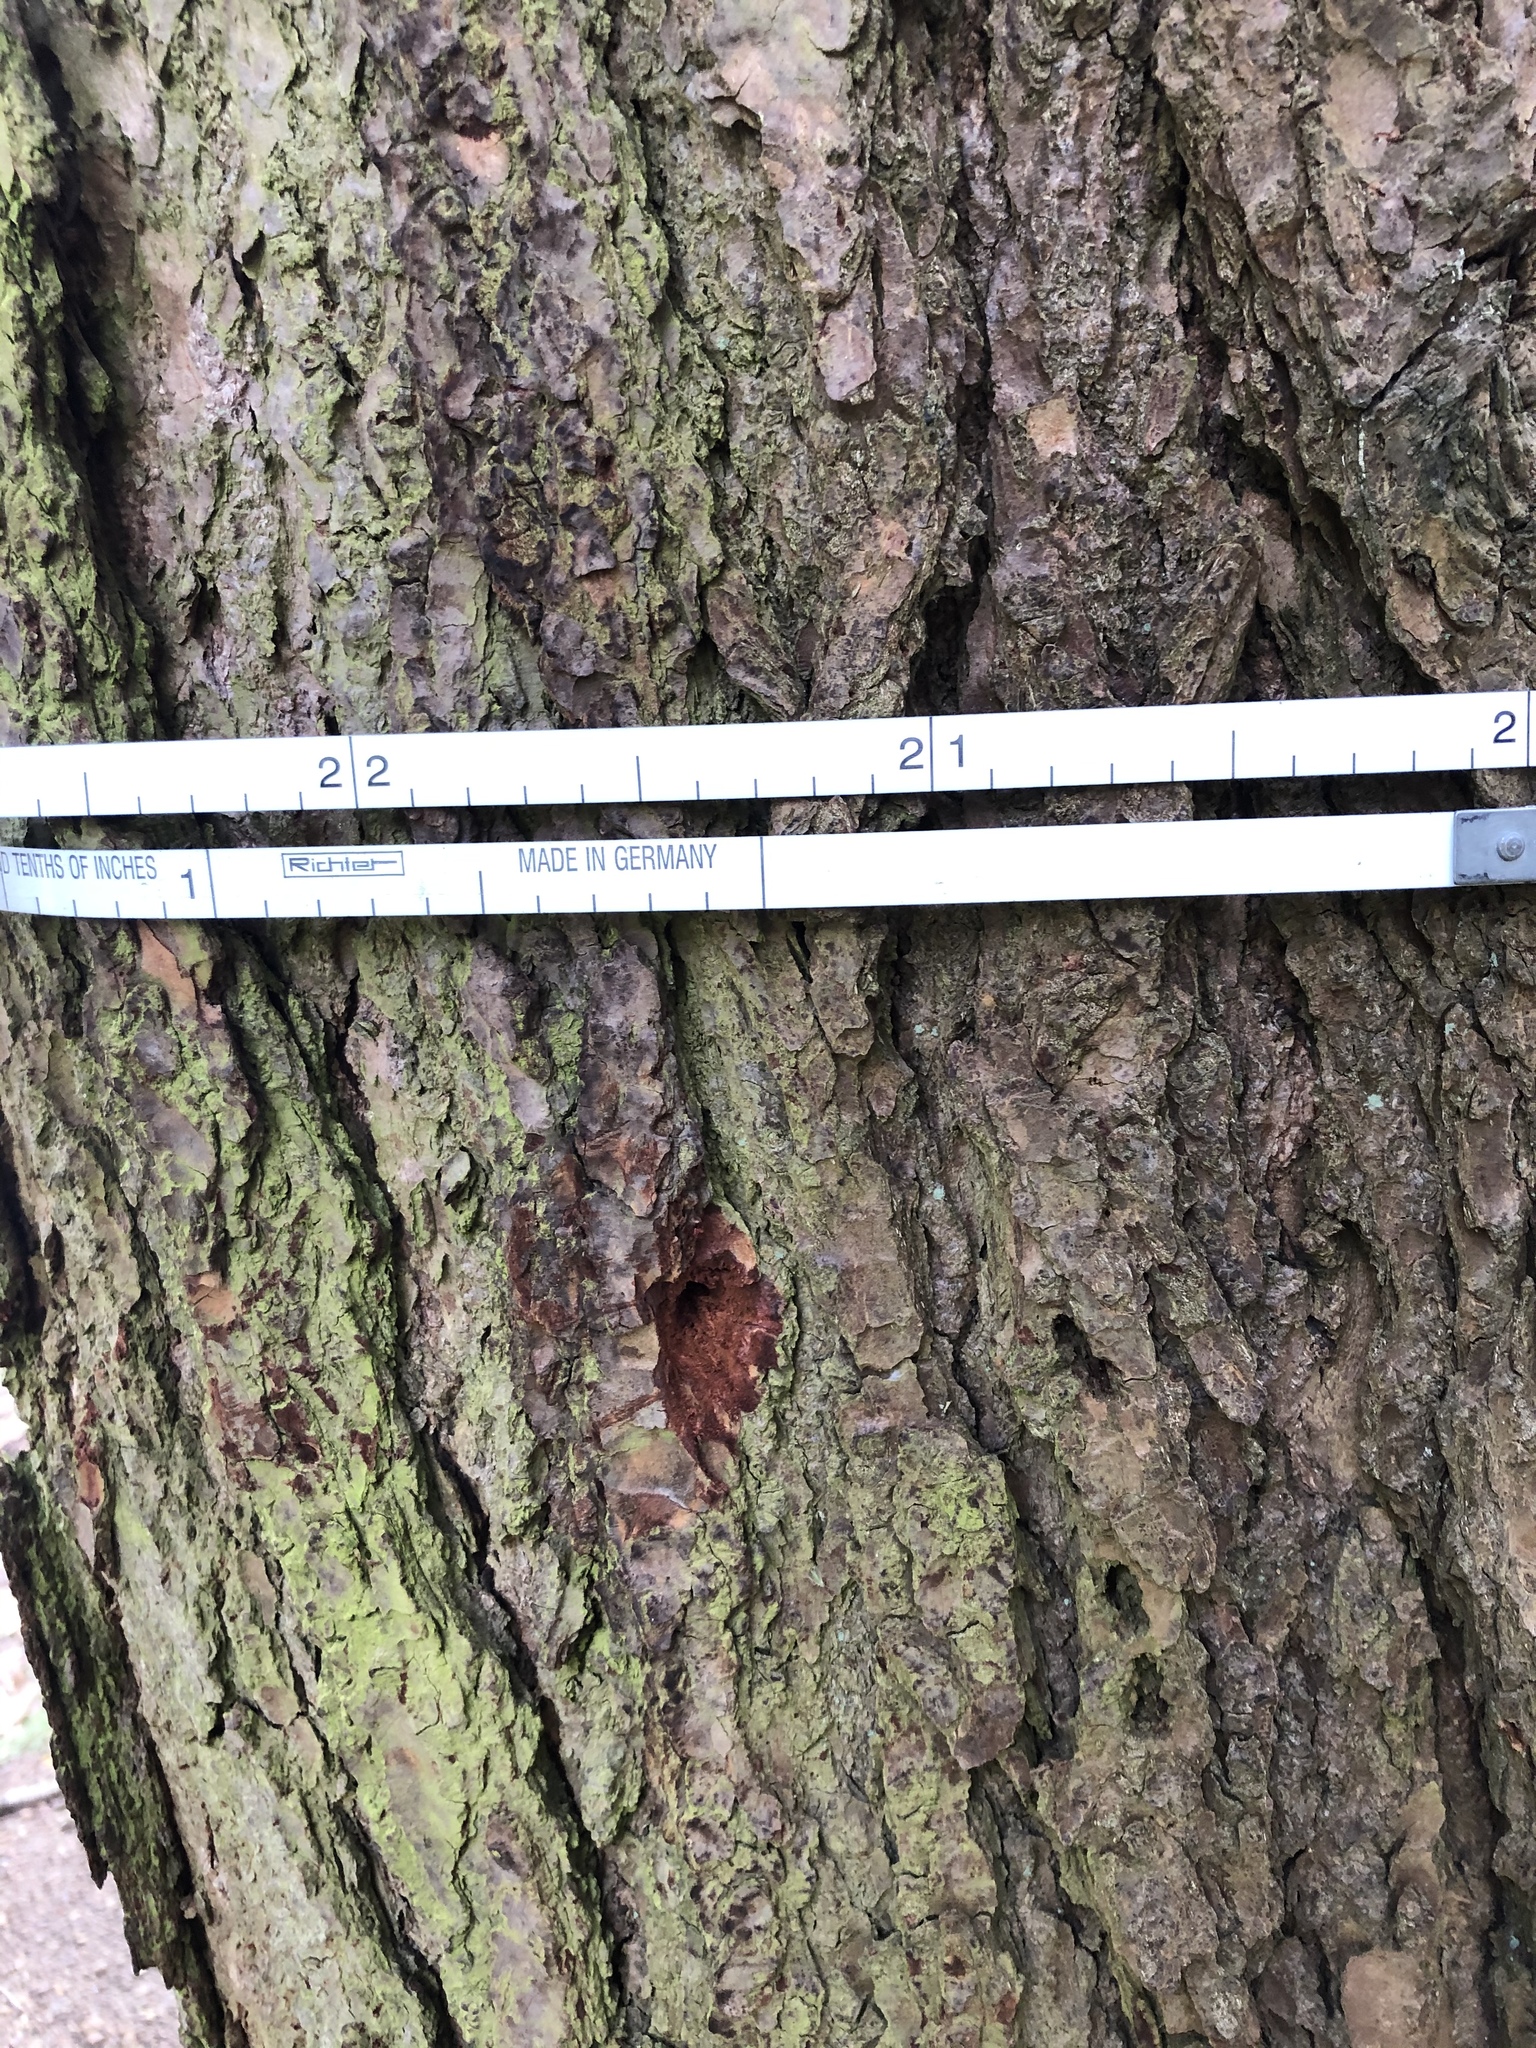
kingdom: Plantae
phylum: Tracheophyta
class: Pinopsida
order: Pinales
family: Pinaceae
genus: Tsuga
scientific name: Tsuga canadensis
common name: Eastern hemlock
